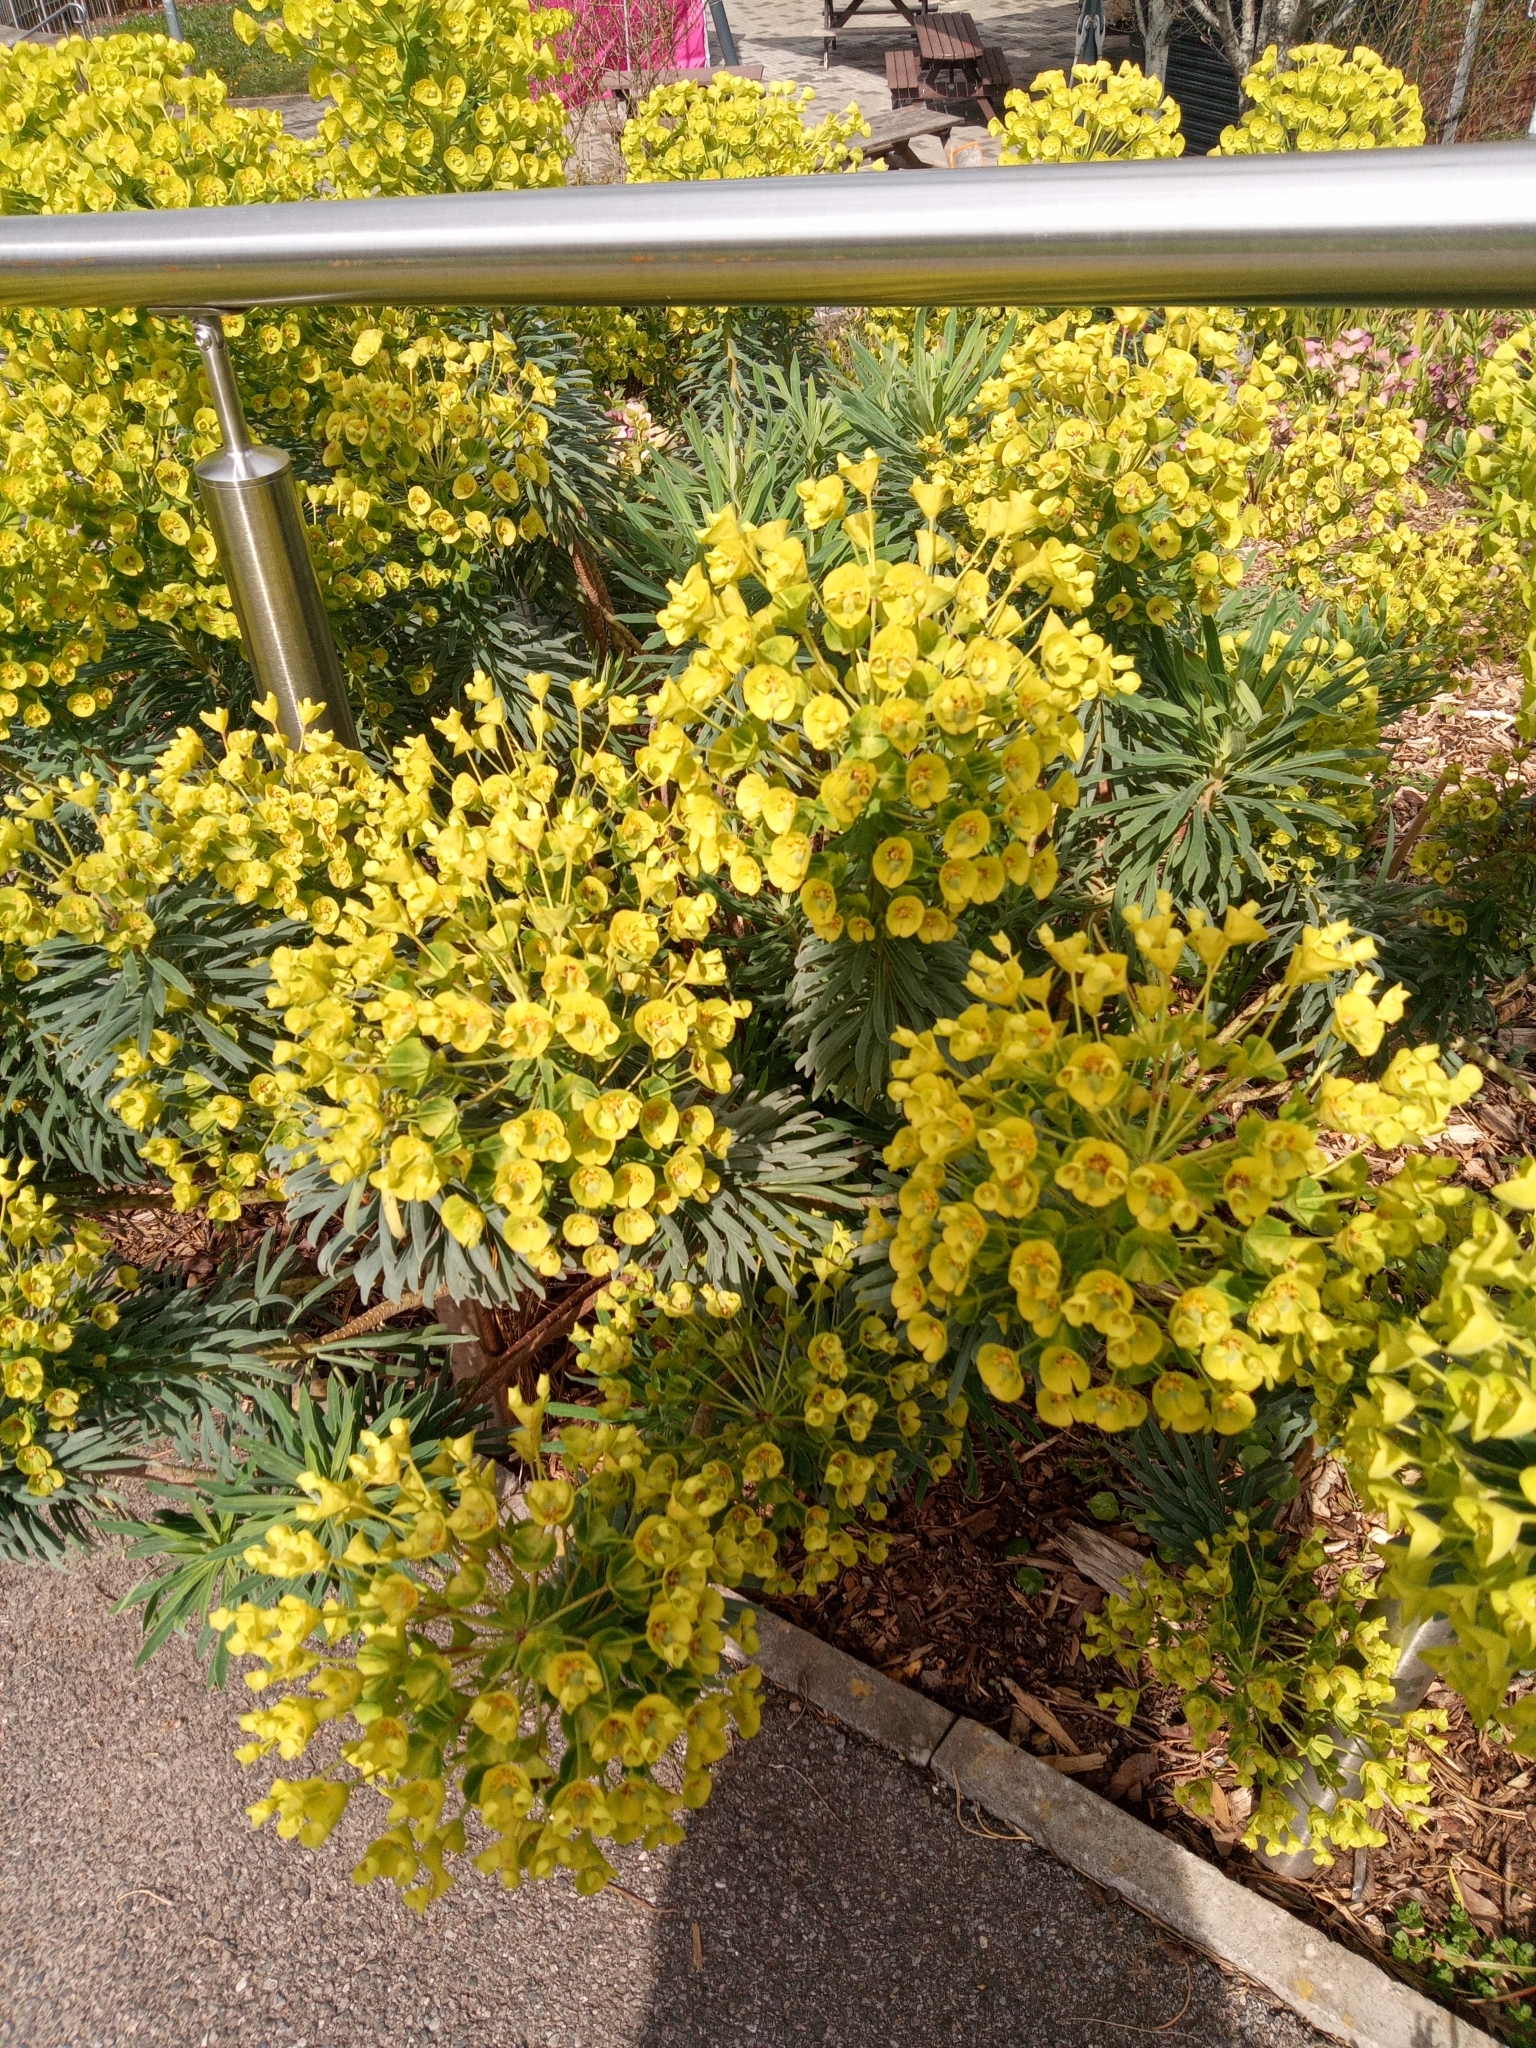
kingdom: Plantae
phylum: Tracheophyta
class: Magnoliopsida
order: Malpighiales
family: Euphorbiaceae
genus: Euphorbia
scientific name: Euphorbia characias
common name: Mediterranean spurge
